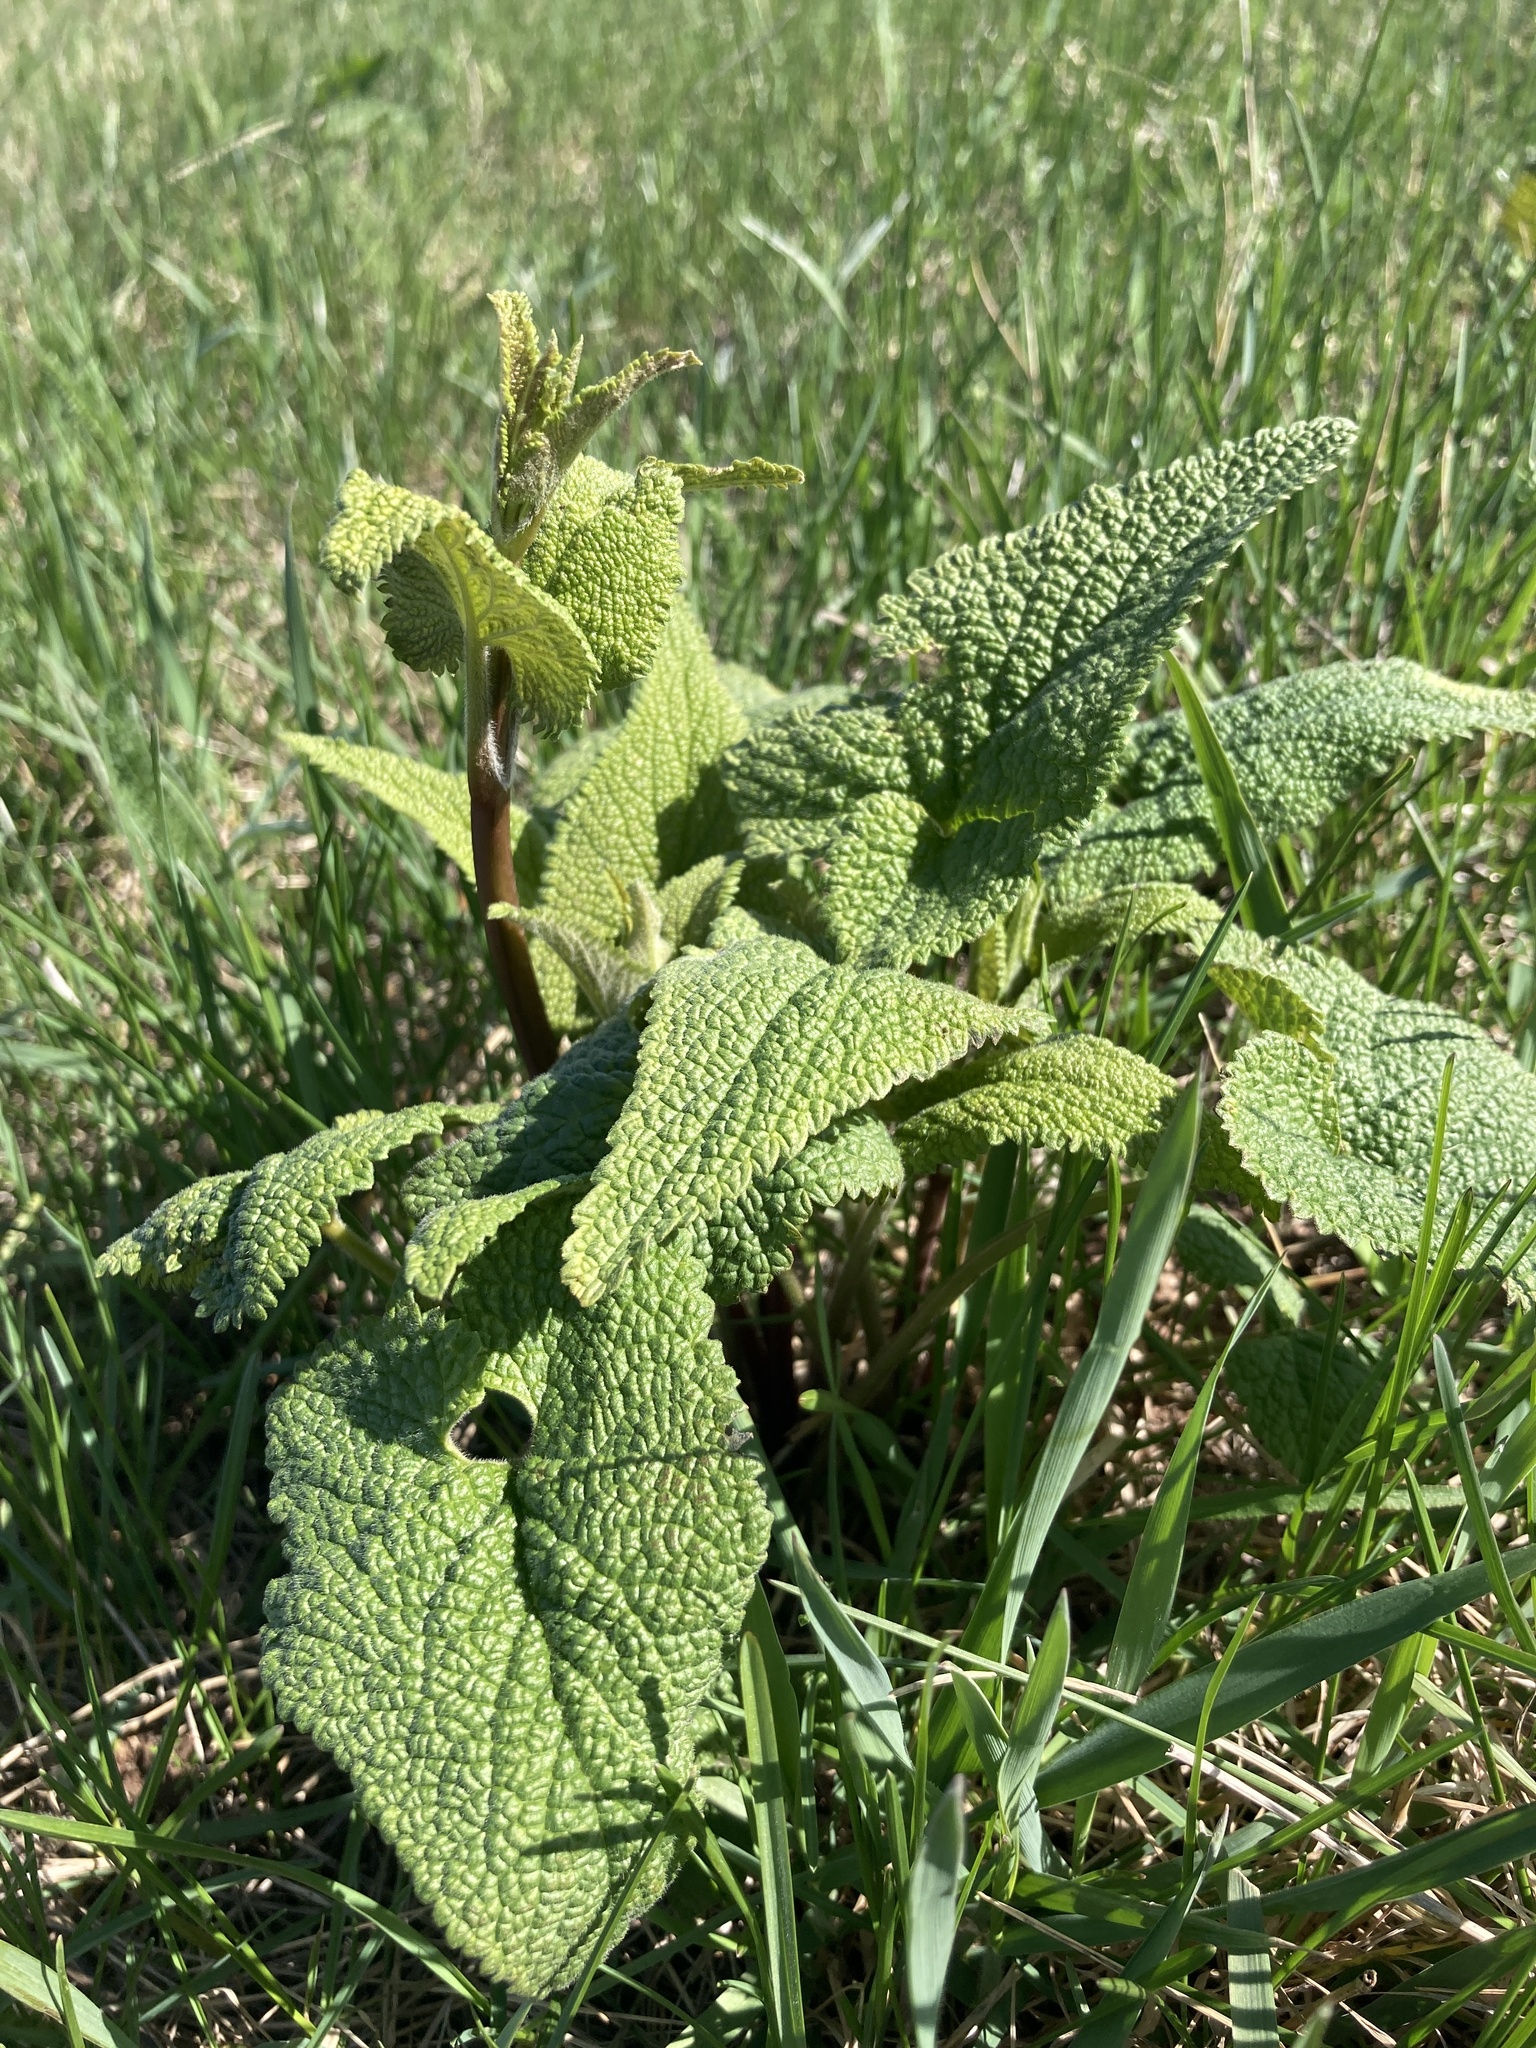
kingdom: Plantae
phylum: Tracheophyta
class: Magnoliopsida
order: Lamiales
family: Lamiaceae
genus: Phlomoides
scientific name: Phlomoides tuberosa
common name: Tuberous jerusalem sage
